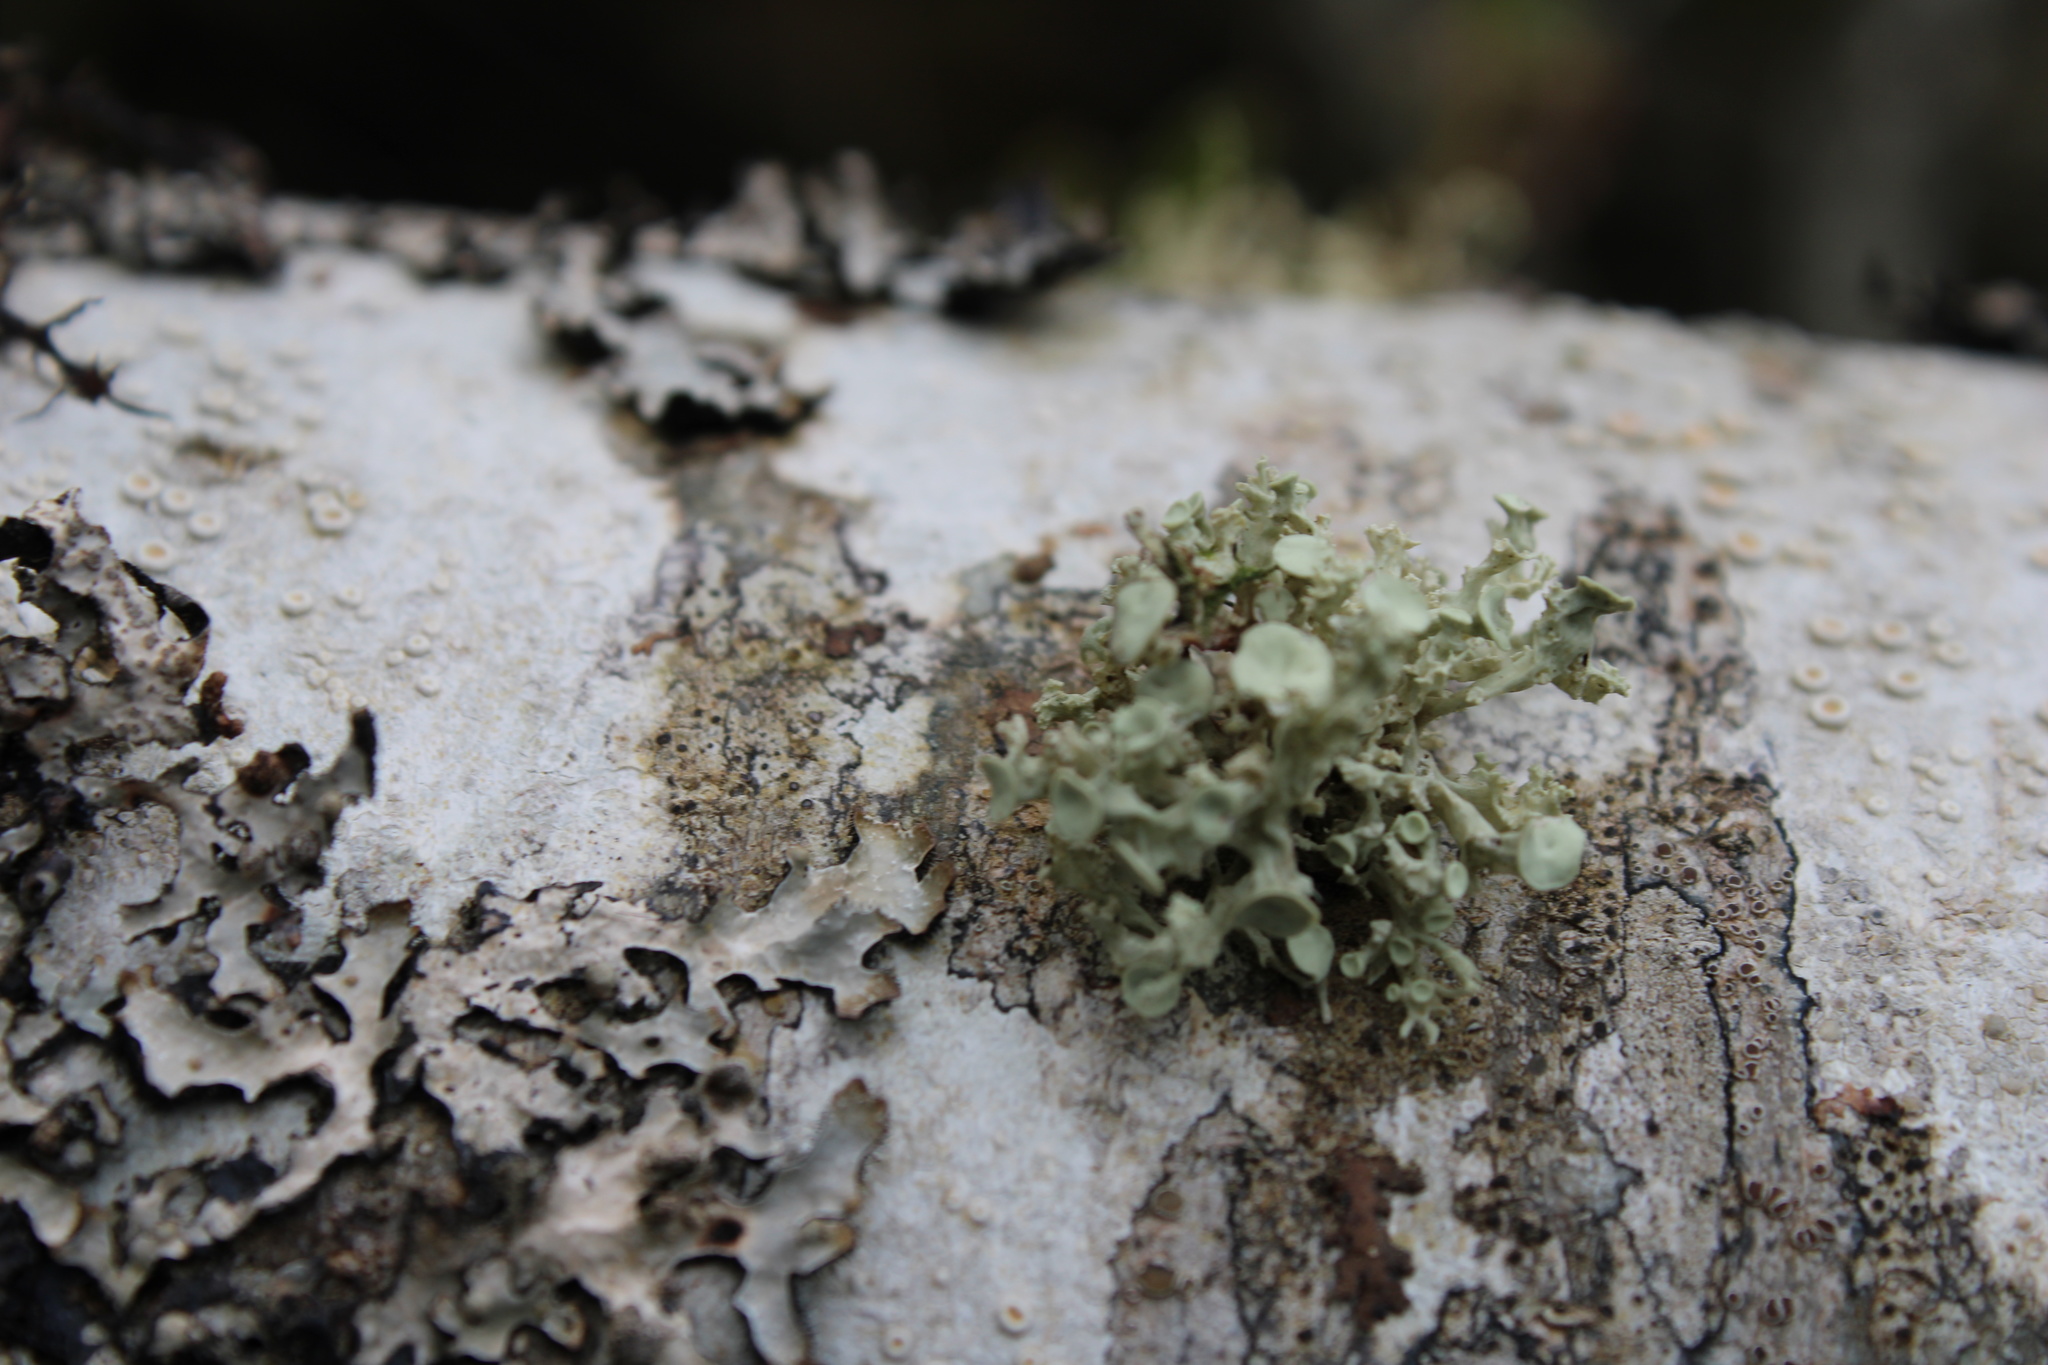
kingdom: Fungi
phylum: Ascomycota
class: Lecanoromycetes
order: Lecanorales
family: Ramalinaceae
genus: Ramalina
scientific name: Ramalina dilacerata
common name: Punctured bushy lichen
